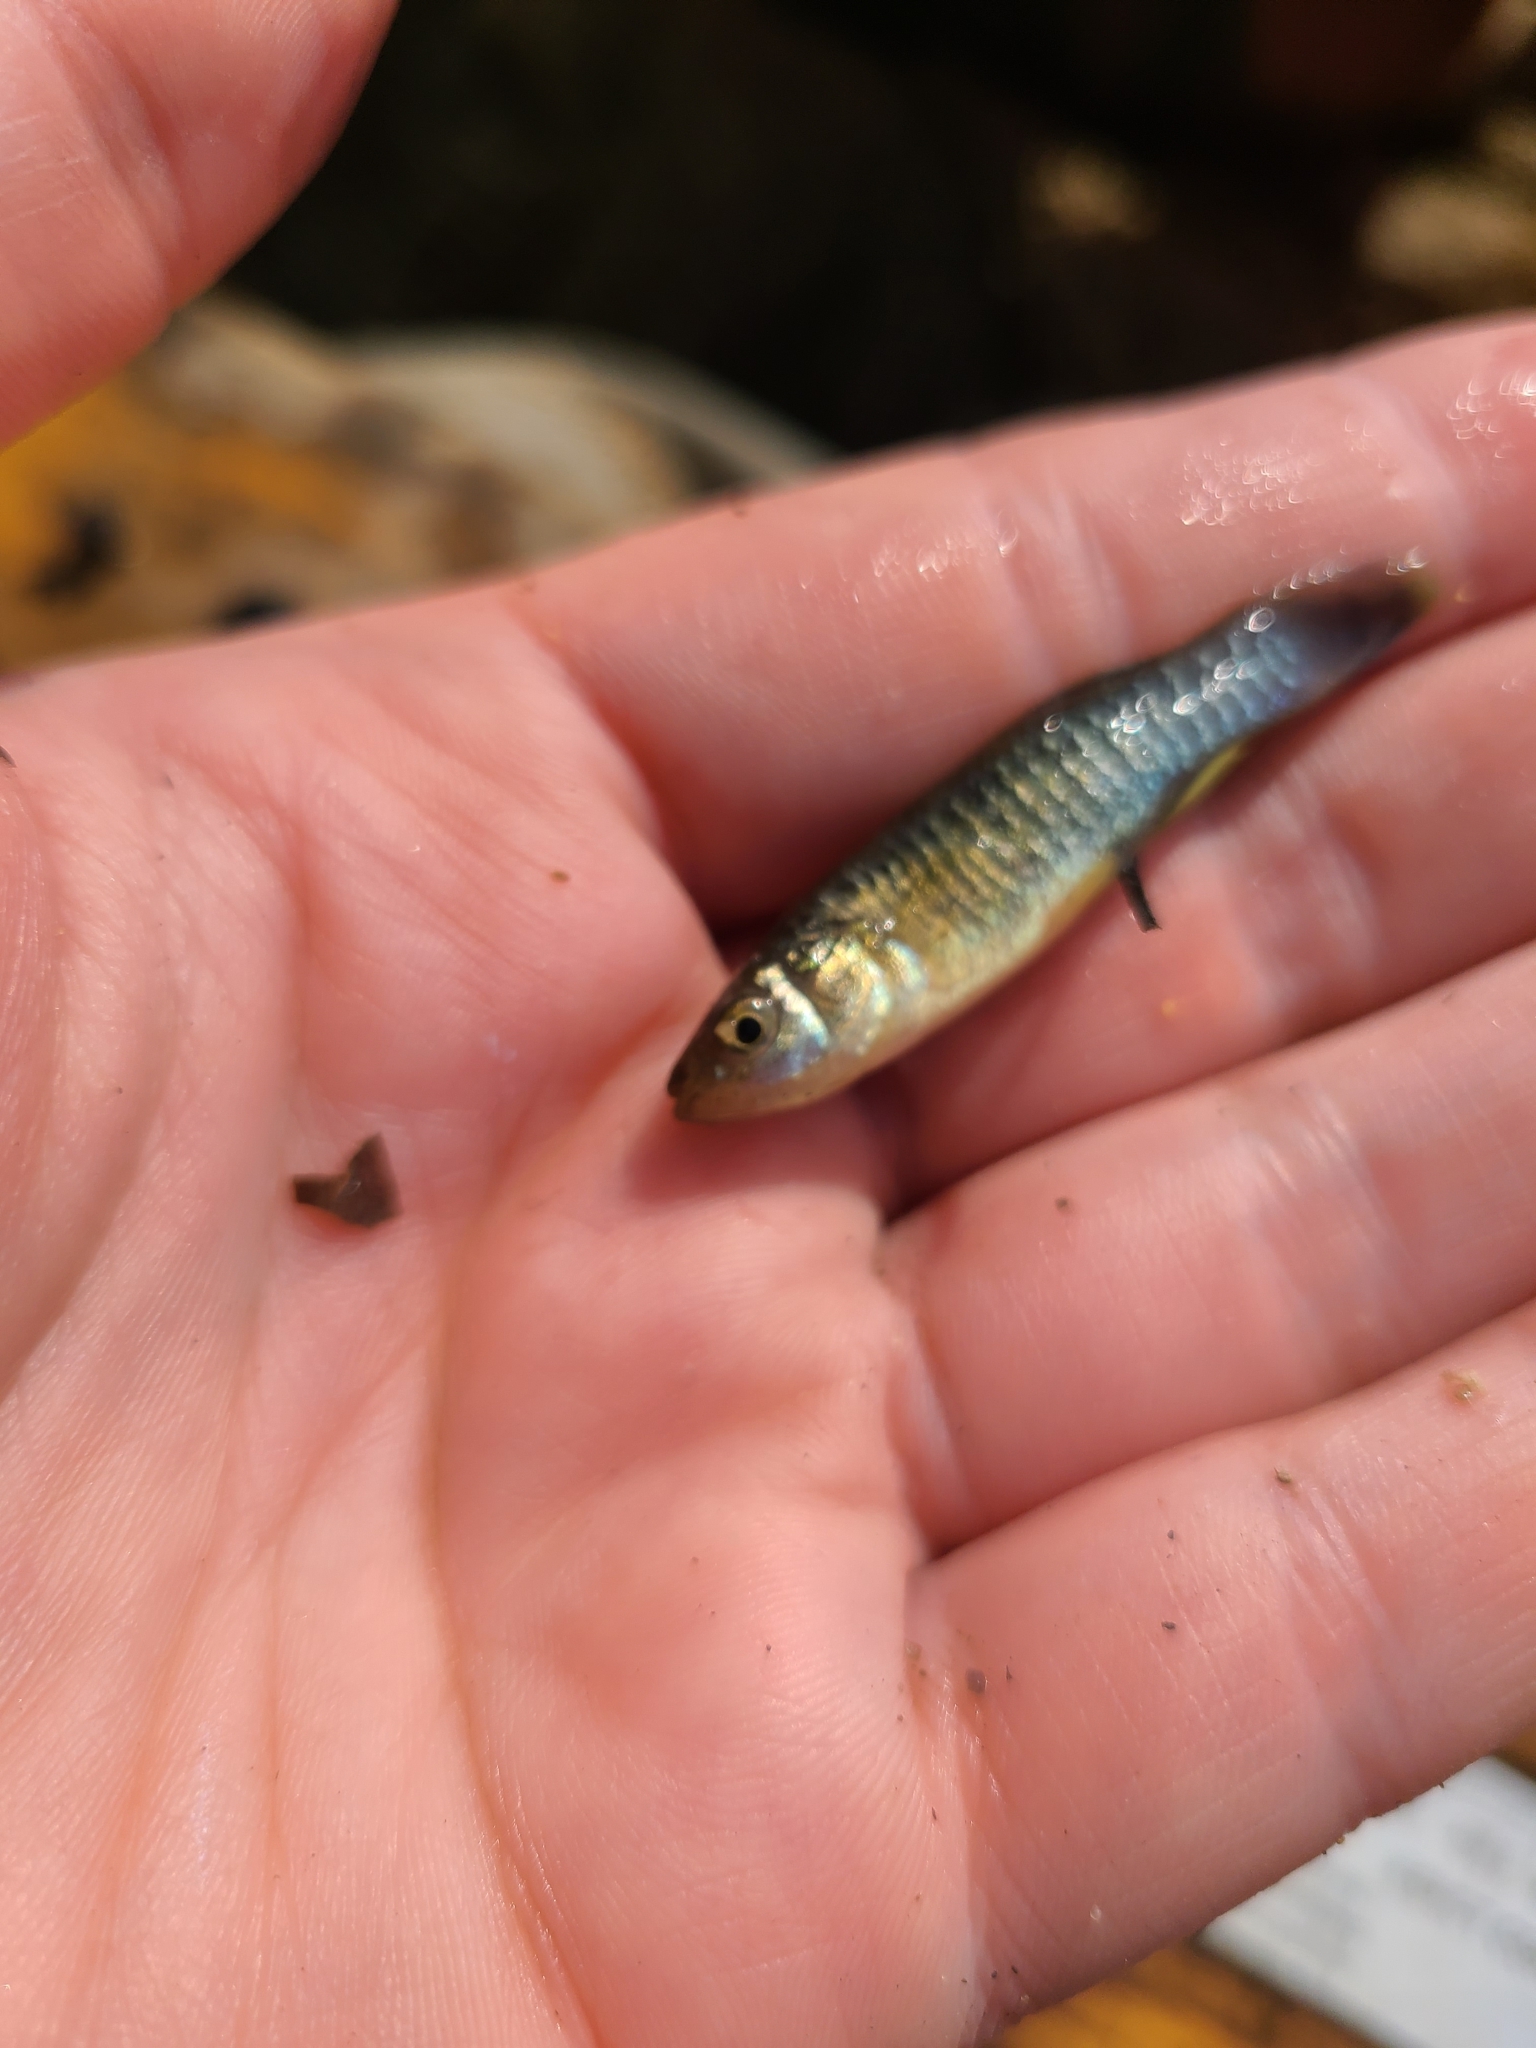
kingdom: Animalia
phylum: Chordata
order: Cyprinodontiformes
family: Fundulidae
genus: Fundulus
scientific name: Fundulus heteroclitus
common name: Mummichog
